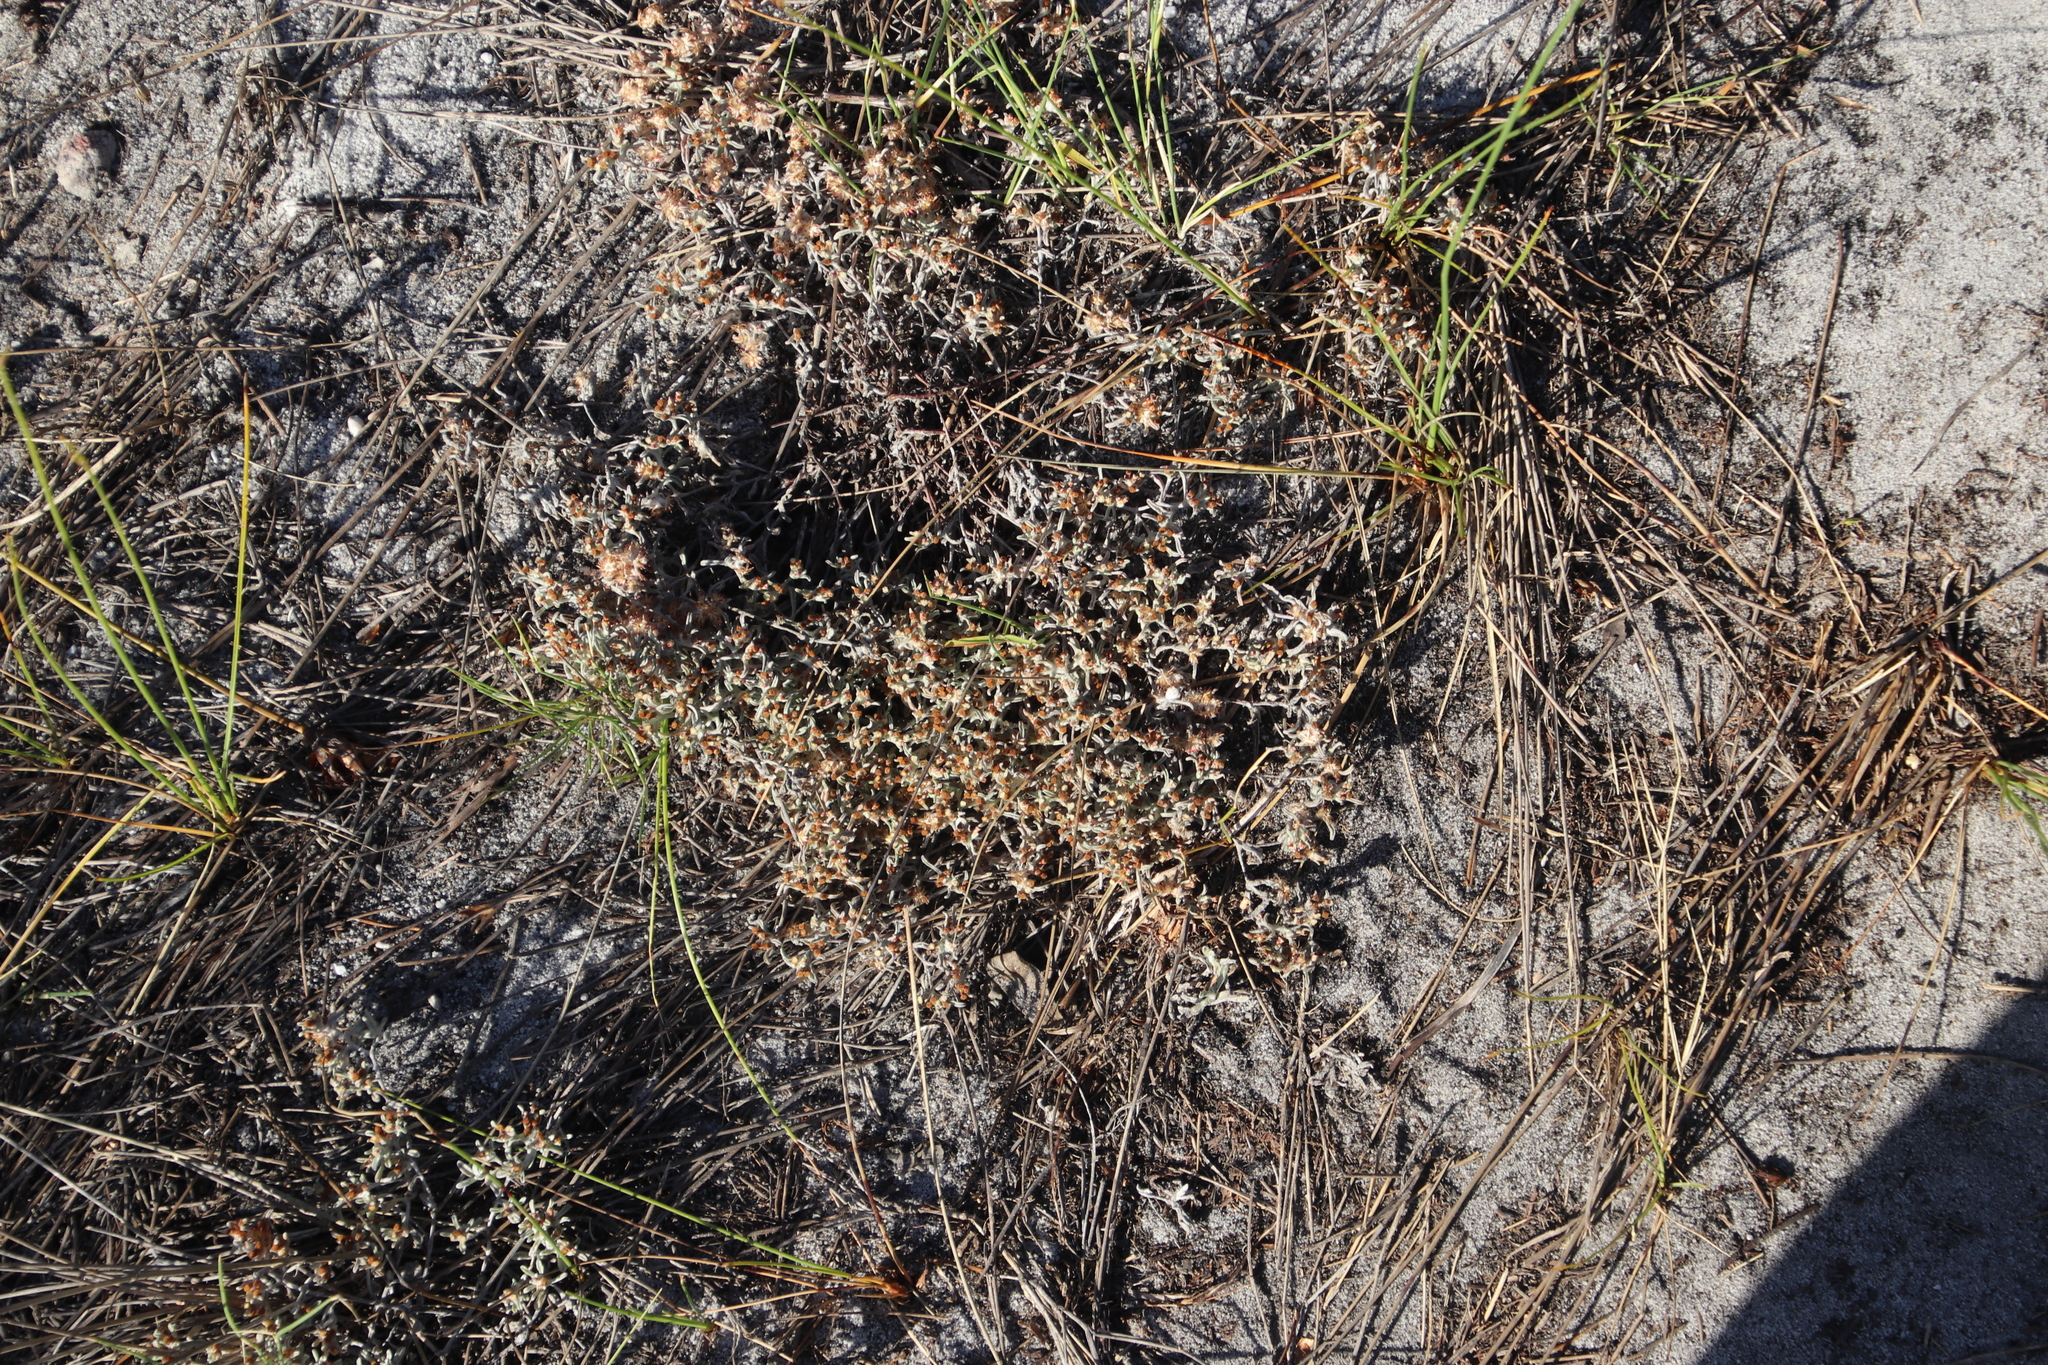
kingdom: Plantae
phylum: Tracheophyta
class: Magnoliopsida
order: Asterales
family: Asteraceae
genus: Helichrysum
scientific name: Helichrysum tinctum
